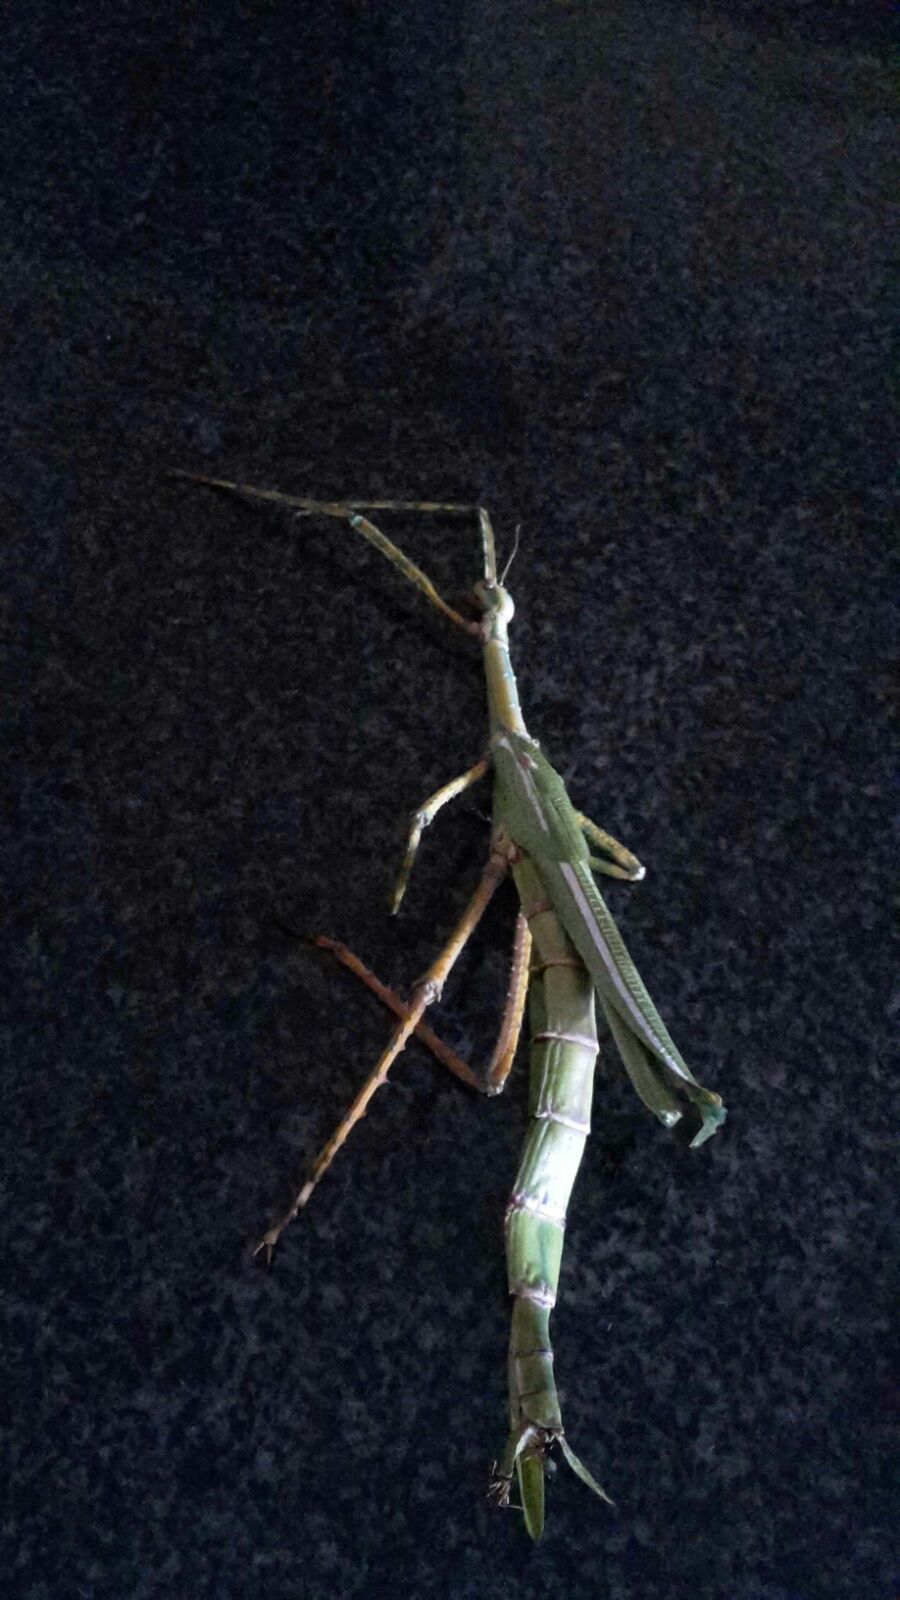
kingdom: Animalia
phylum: Arthropoda
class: Insecta
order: Phasmida
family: Phasmatidae
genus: Eurycnema
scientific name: Eurycnema goliath
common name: Goliath stick insect
